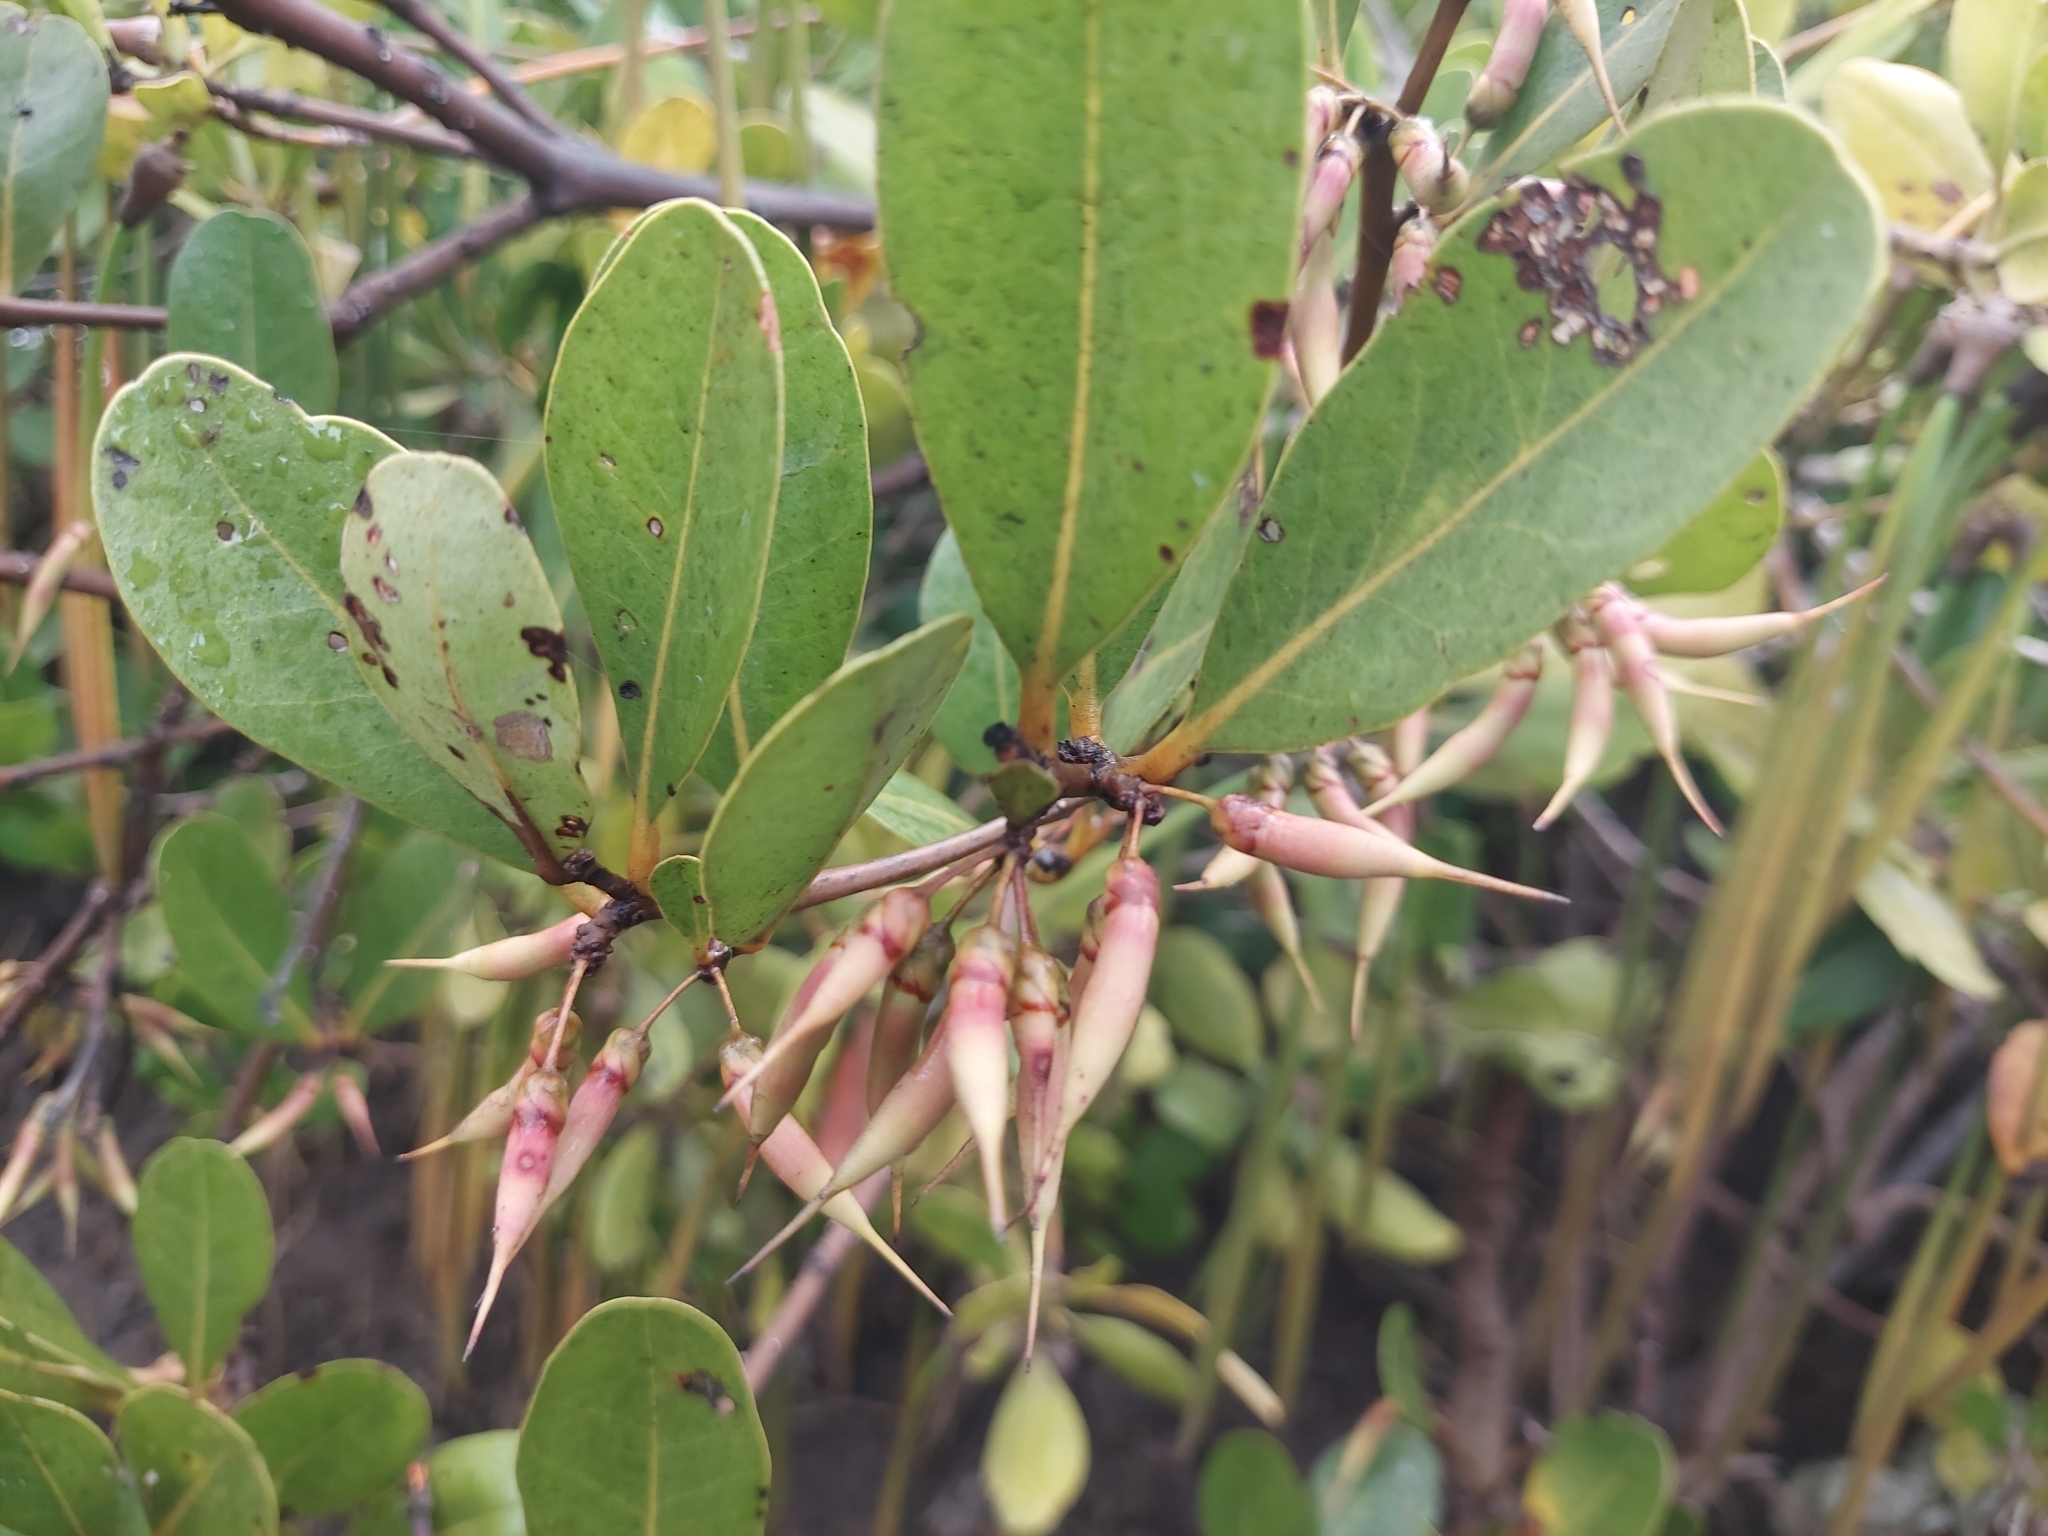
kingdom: Plantae
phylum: Tracheophyta
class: Magnoliopsida
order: Ericales
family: Primulaceae
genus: Aegiceras
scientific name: Aegiceras corniculatum
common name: River mangrove
